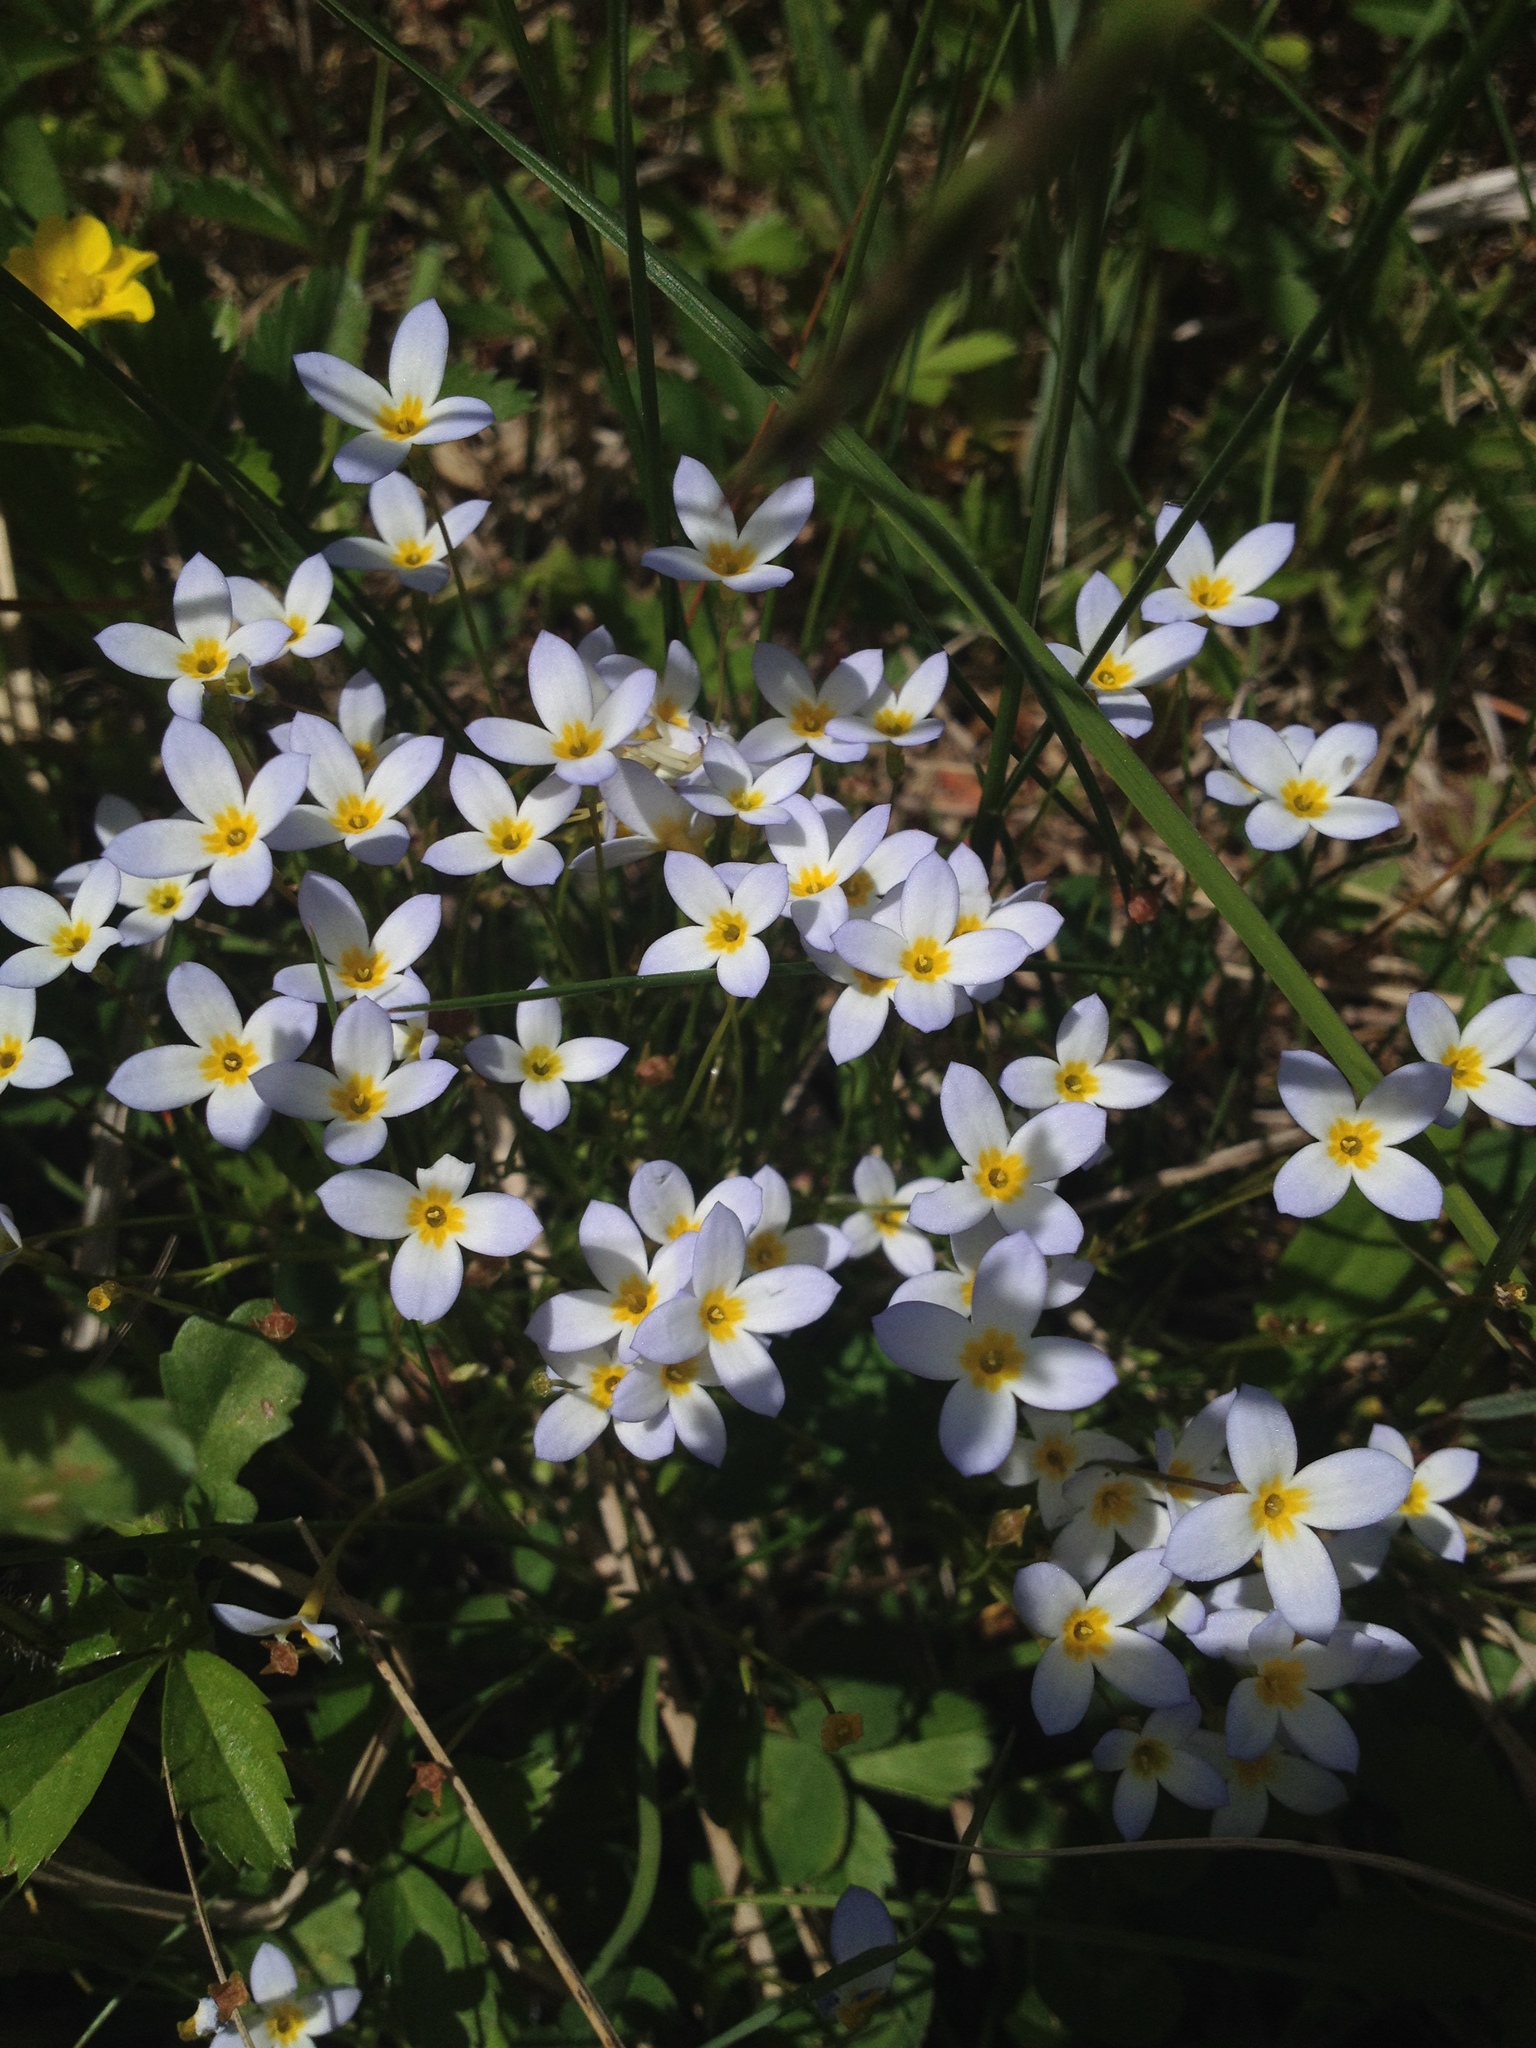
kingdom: Plantae
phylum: Tracheophyta
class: Magnoliopsida
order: Gentianales
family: Rubiaceae
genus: Houstonia
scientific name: Houstonia caerulea
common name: Bluets
